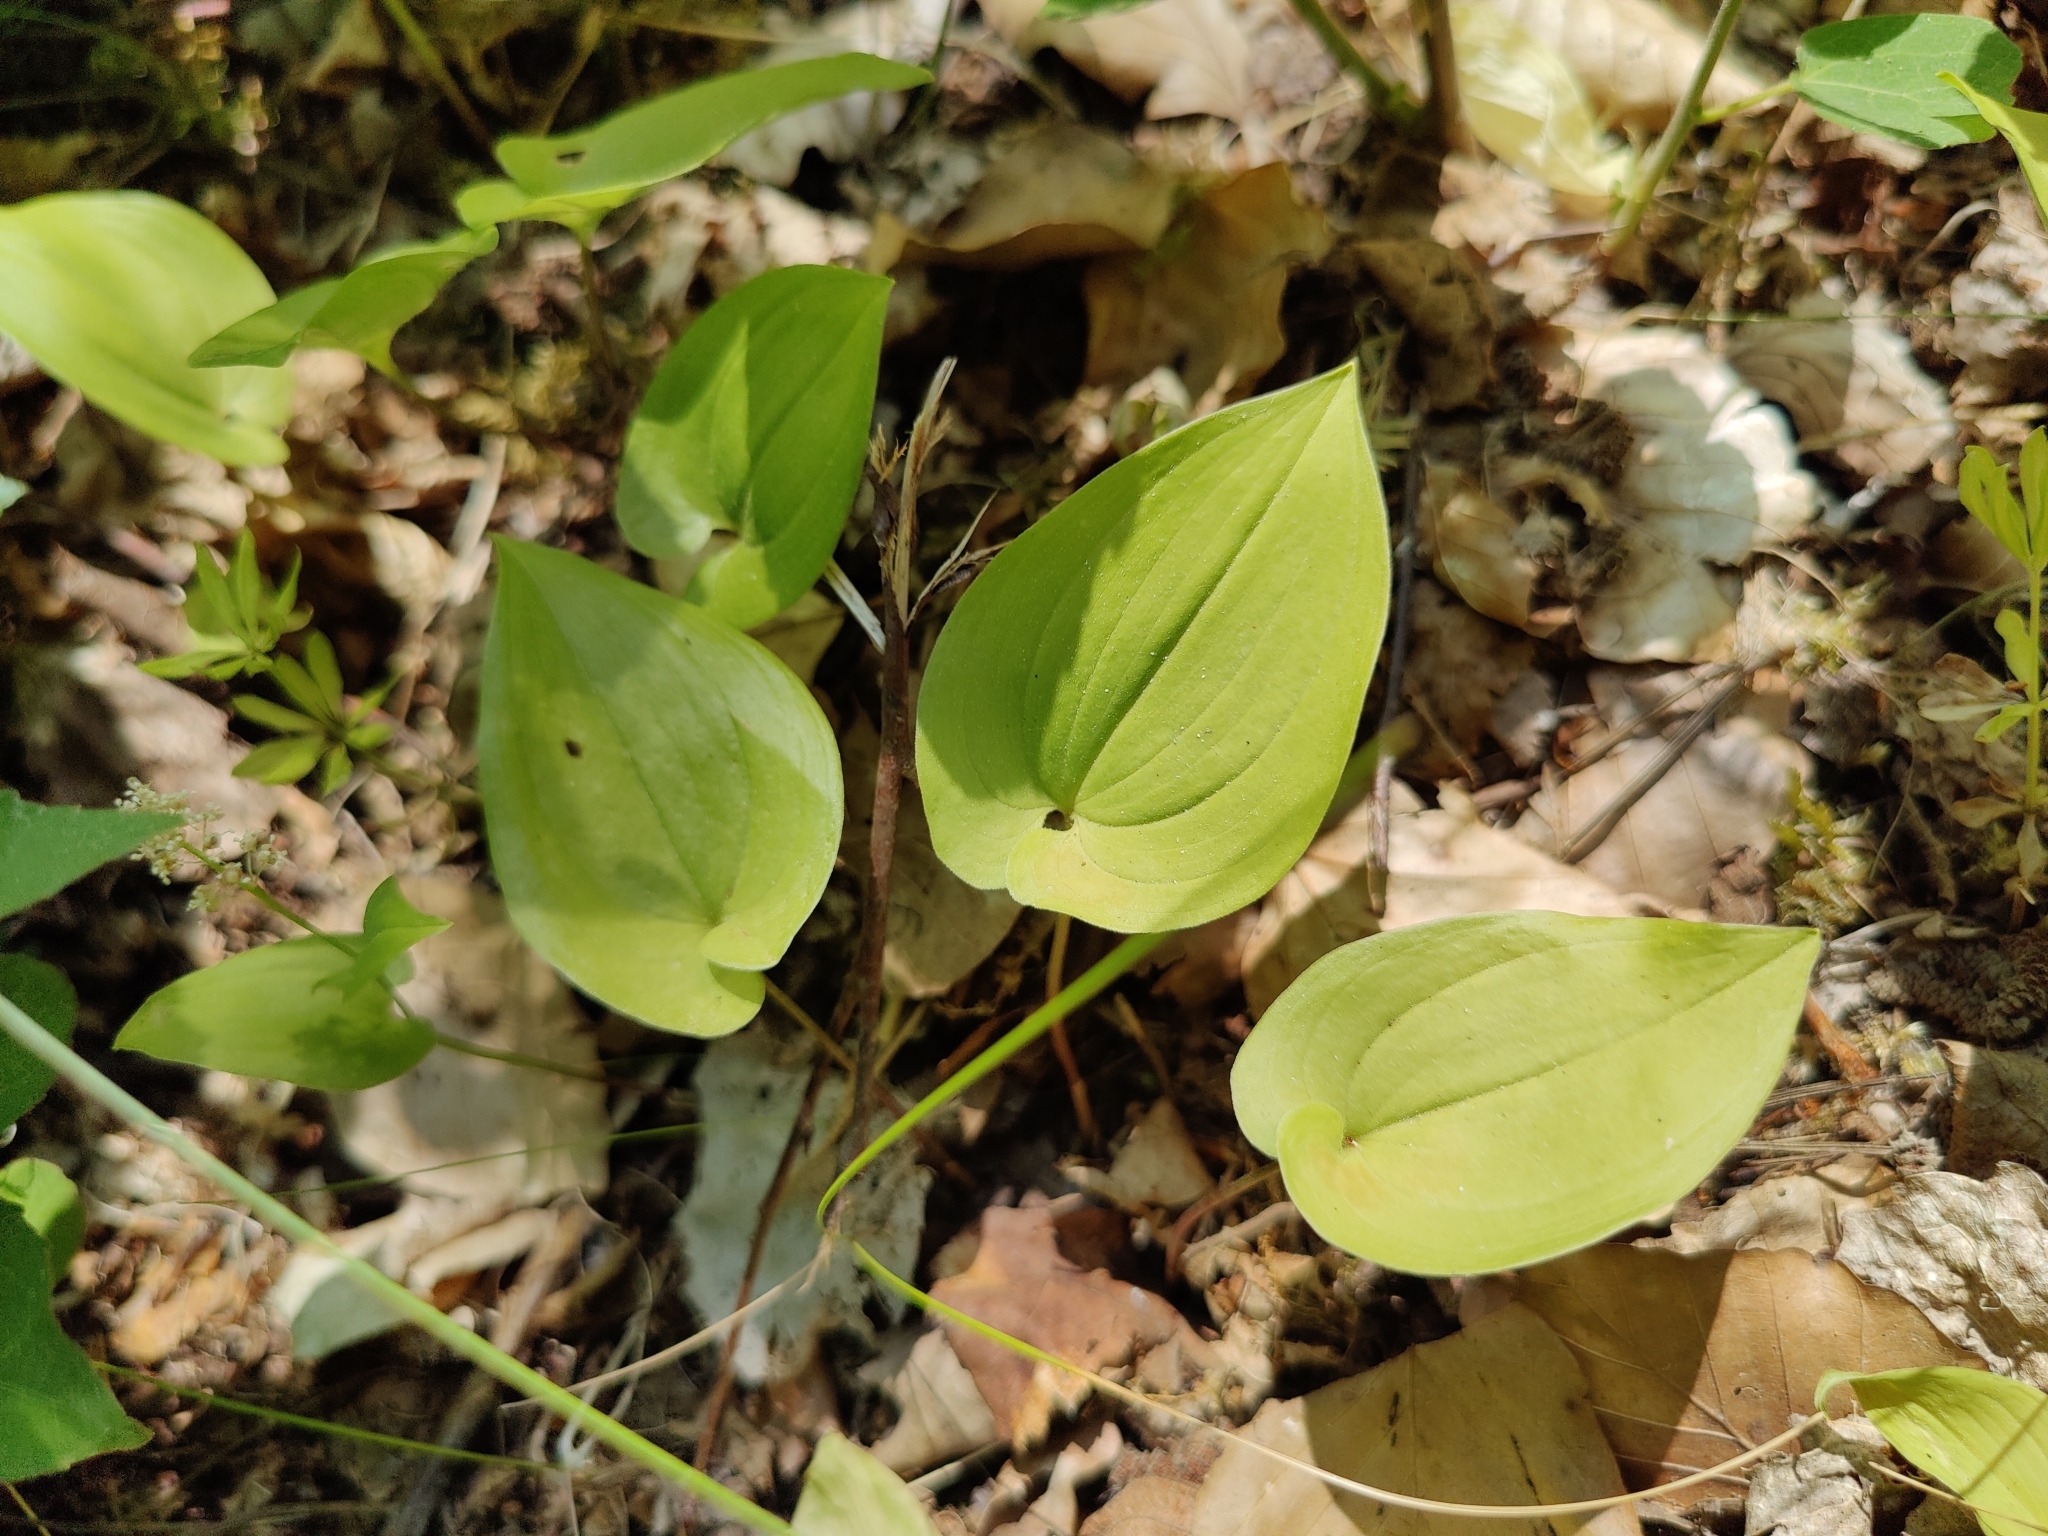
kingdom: Plantae
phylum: Tracheophyta
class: Liliopsida
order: Asparagales
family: Asparagaceae
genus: Maianthemum
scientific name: Maianthemum bifolium
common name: May lily
